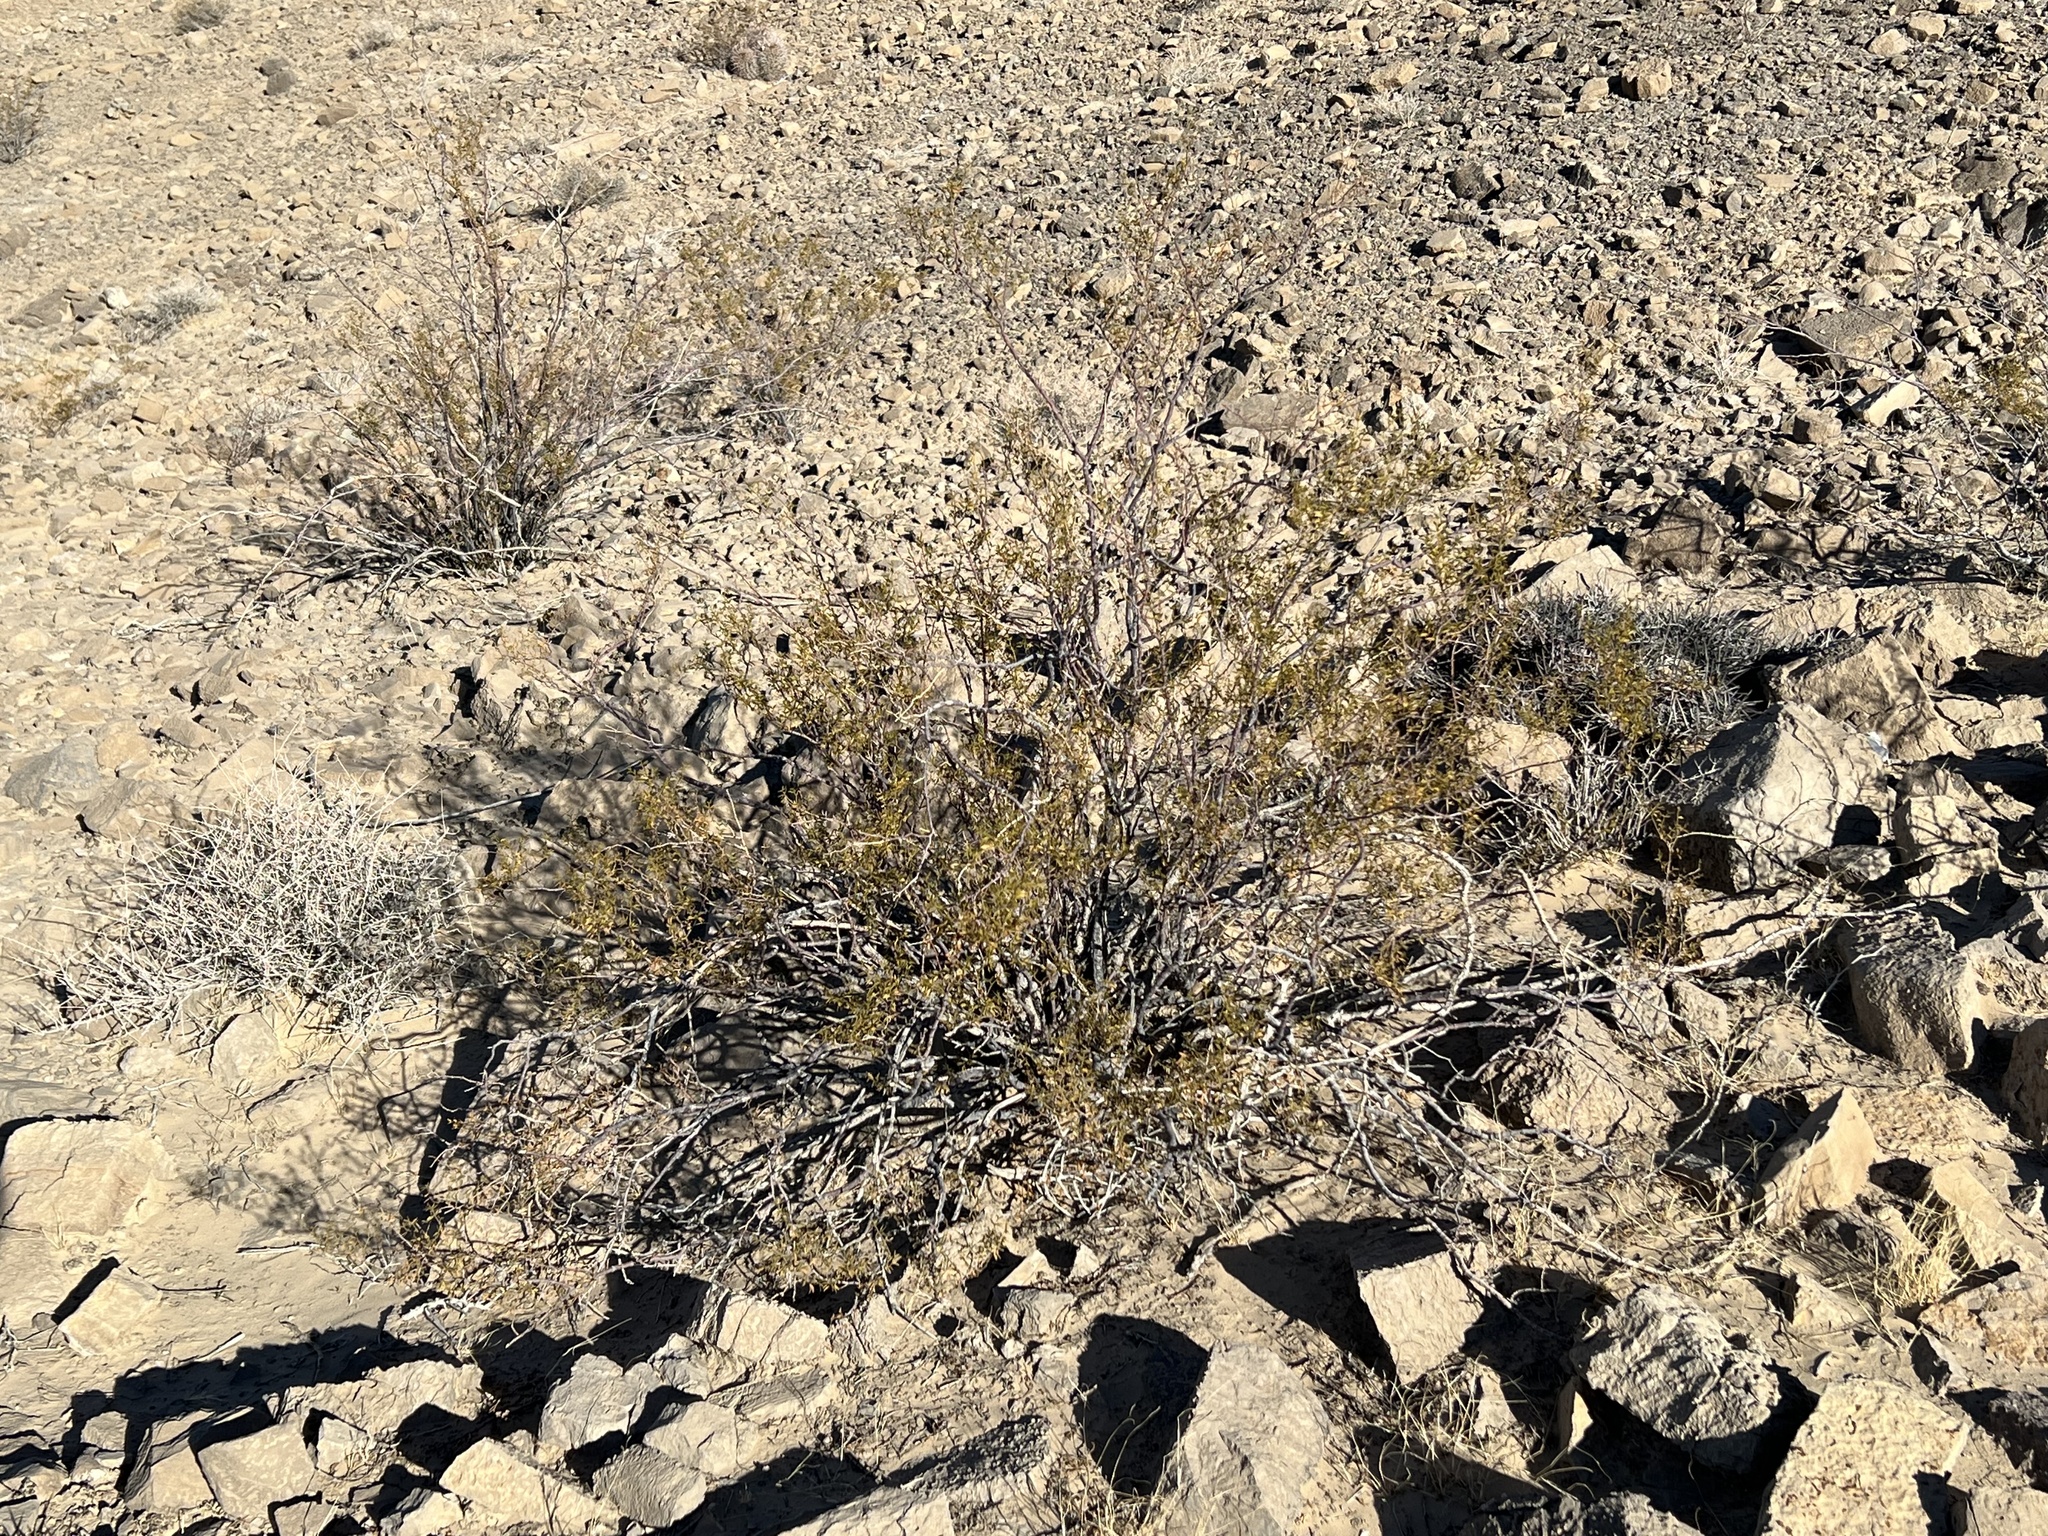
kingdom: Plantae
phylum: Tracheophyta
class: Magnoliopsida
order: Zygophyllales
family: Zygophyllaceae
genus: Larrea
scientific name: Larrea tridentata
